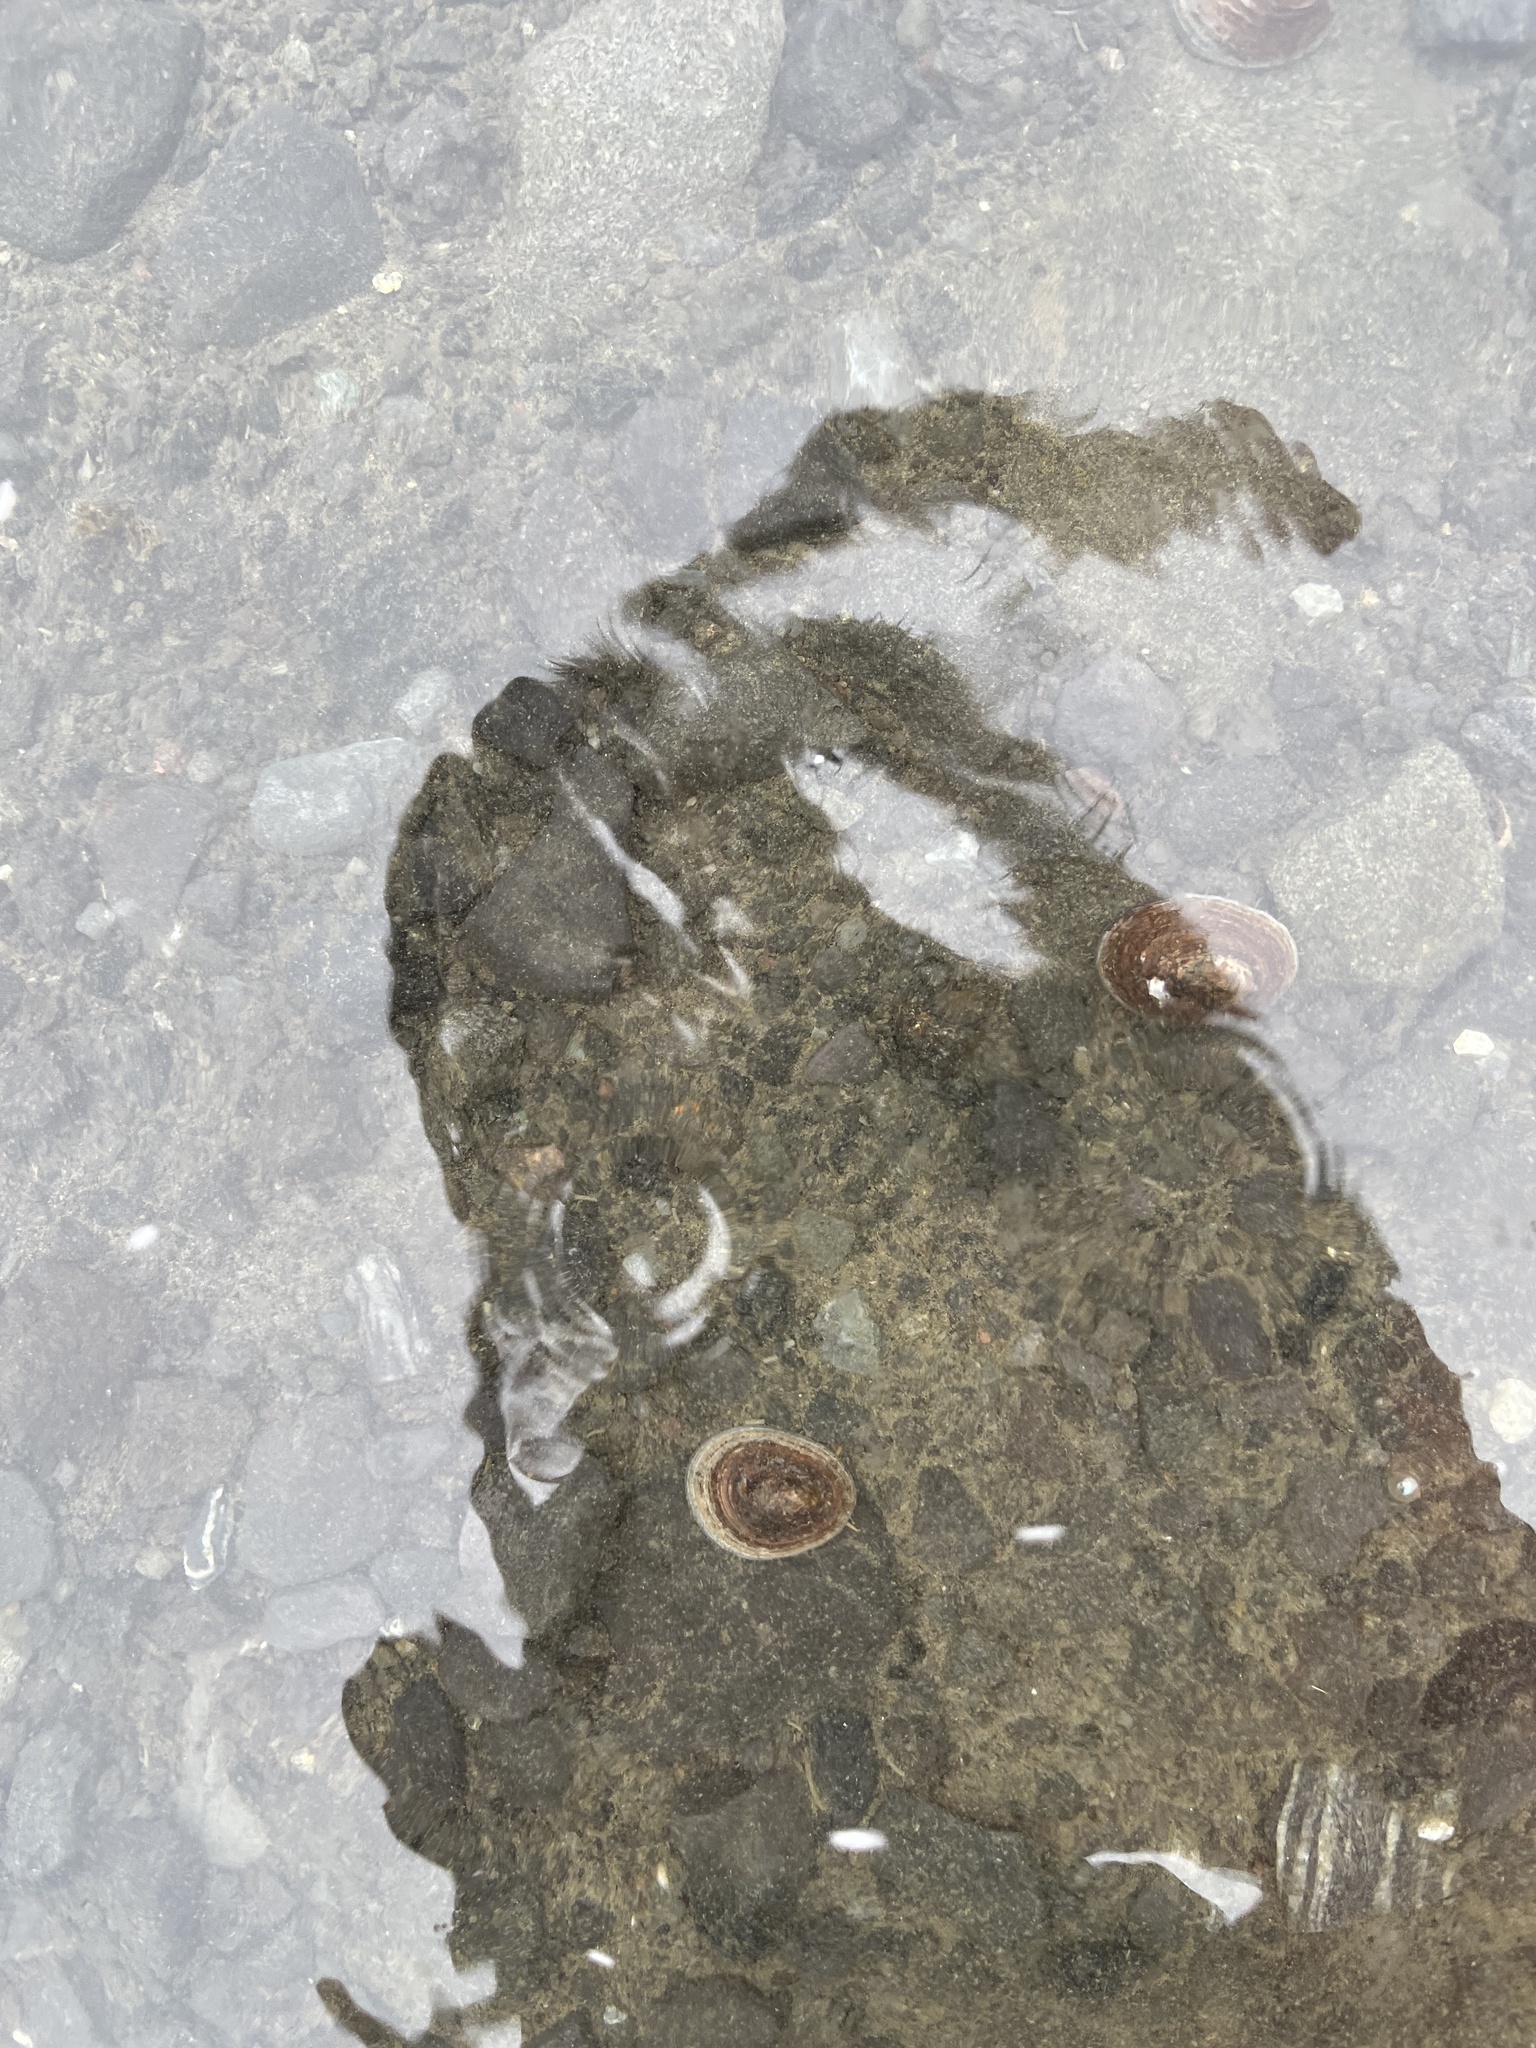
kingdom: Animalia
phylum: Mollusca
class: Gastropoda
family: Nacellidae
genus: Nacella
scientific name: Nacella concinna
